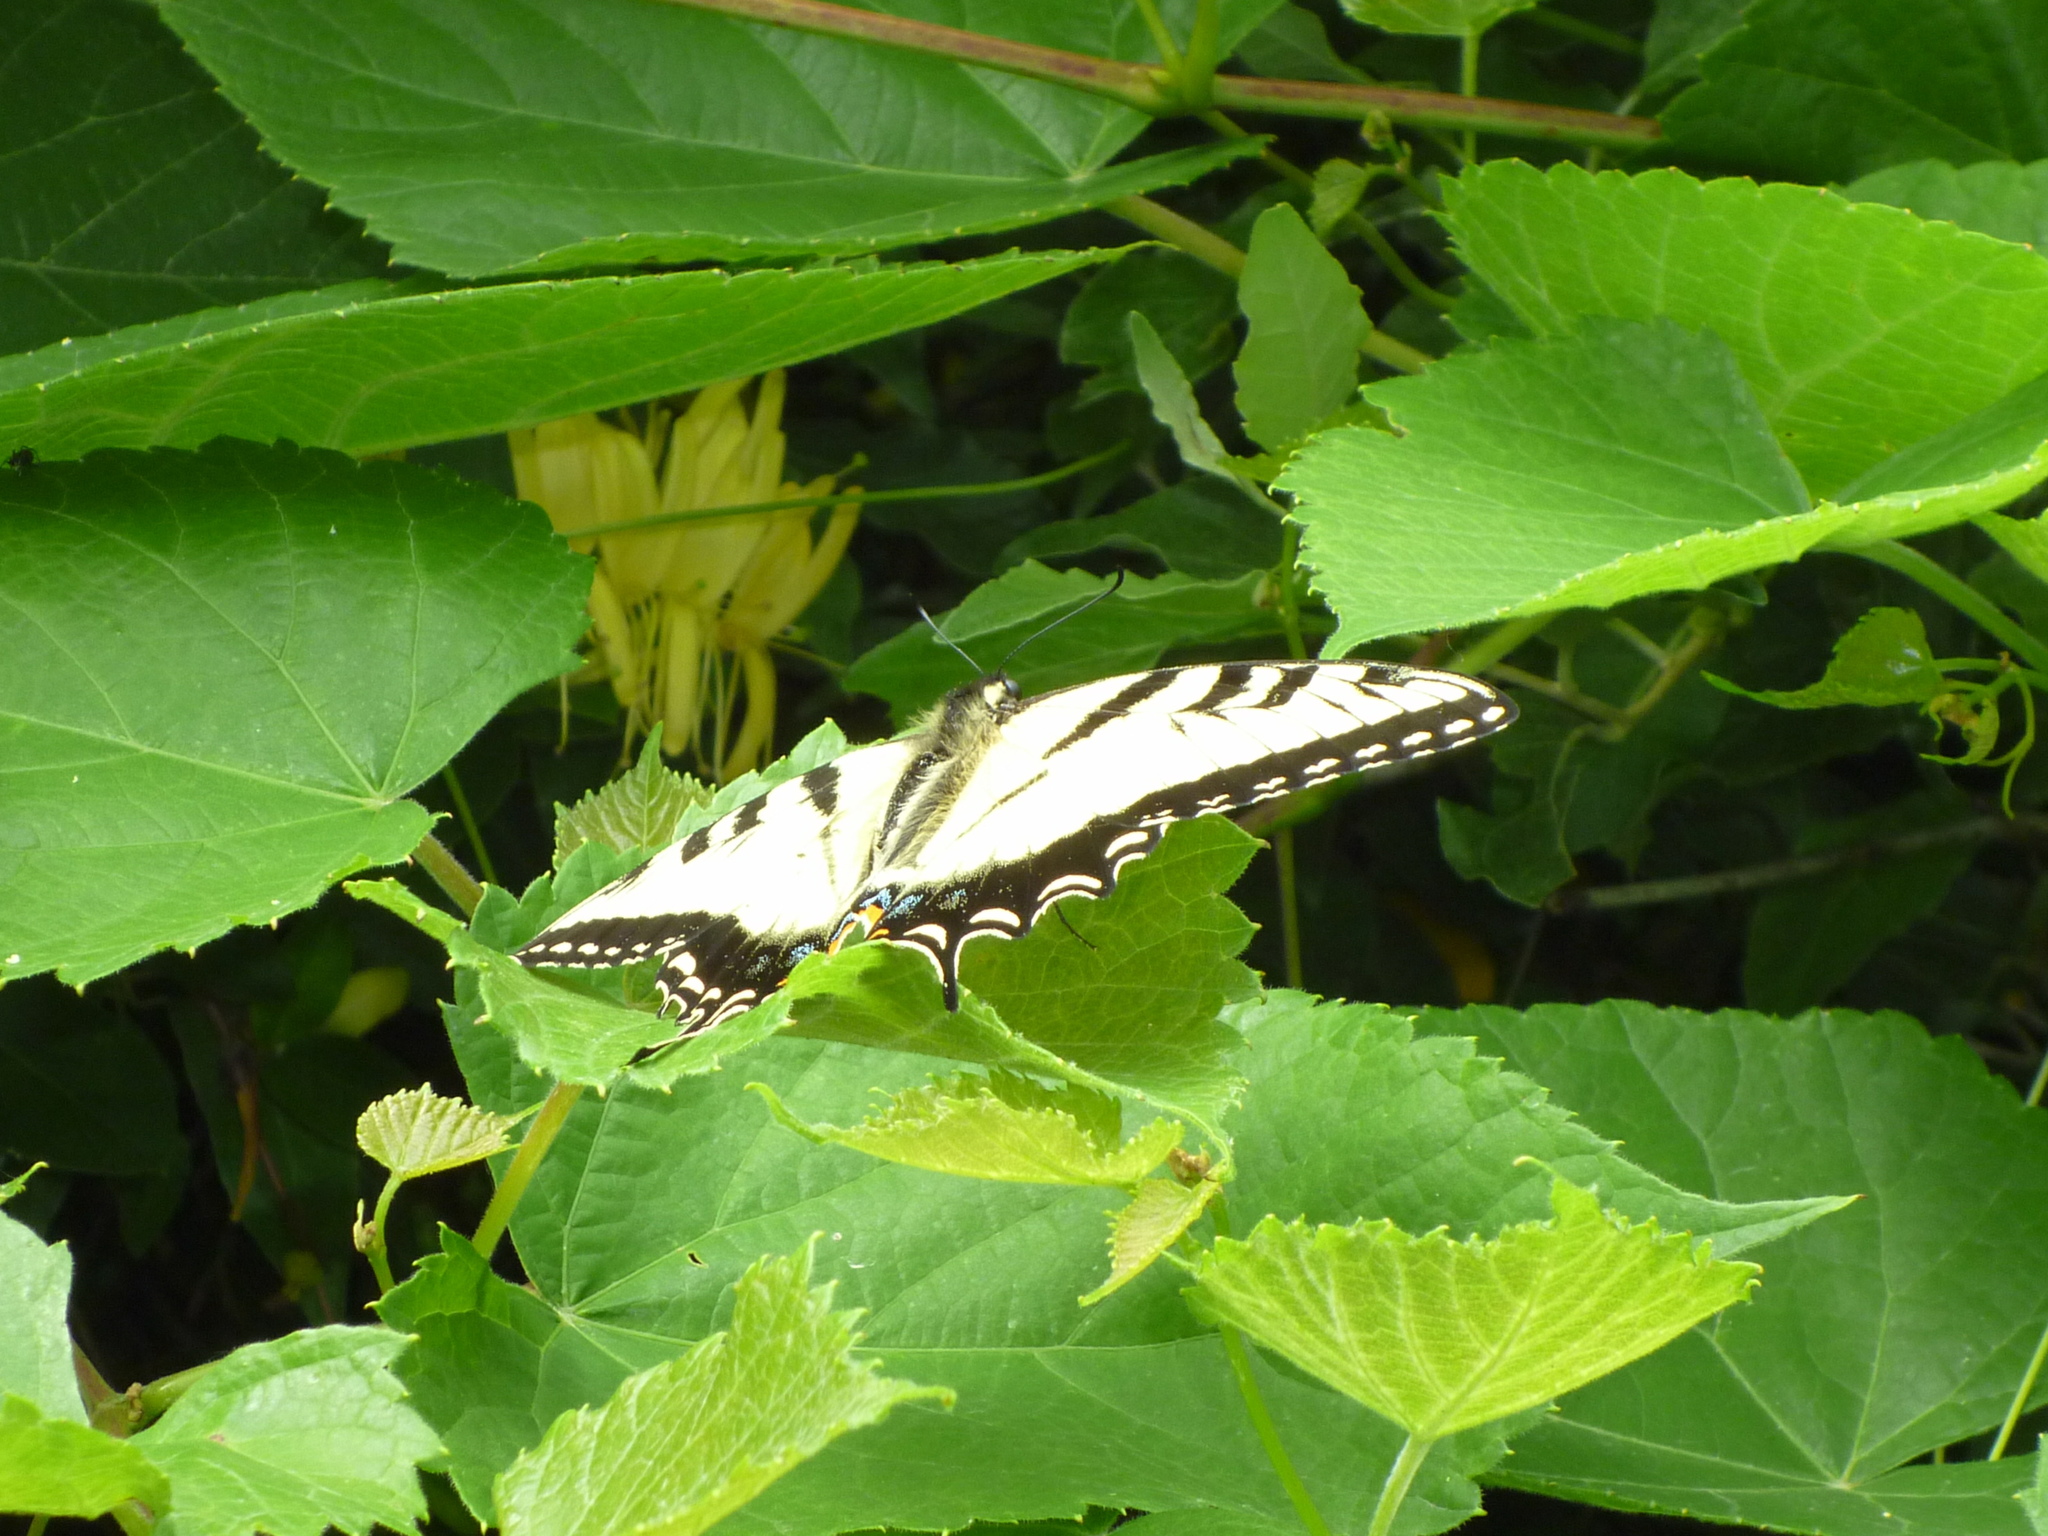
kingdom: Animalia
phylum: Arthropoda
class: Insecta
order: Lepidoptera
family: Papilionidae
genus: Papilio
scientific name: Papilio glaucus
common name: Tiger swallowtail
